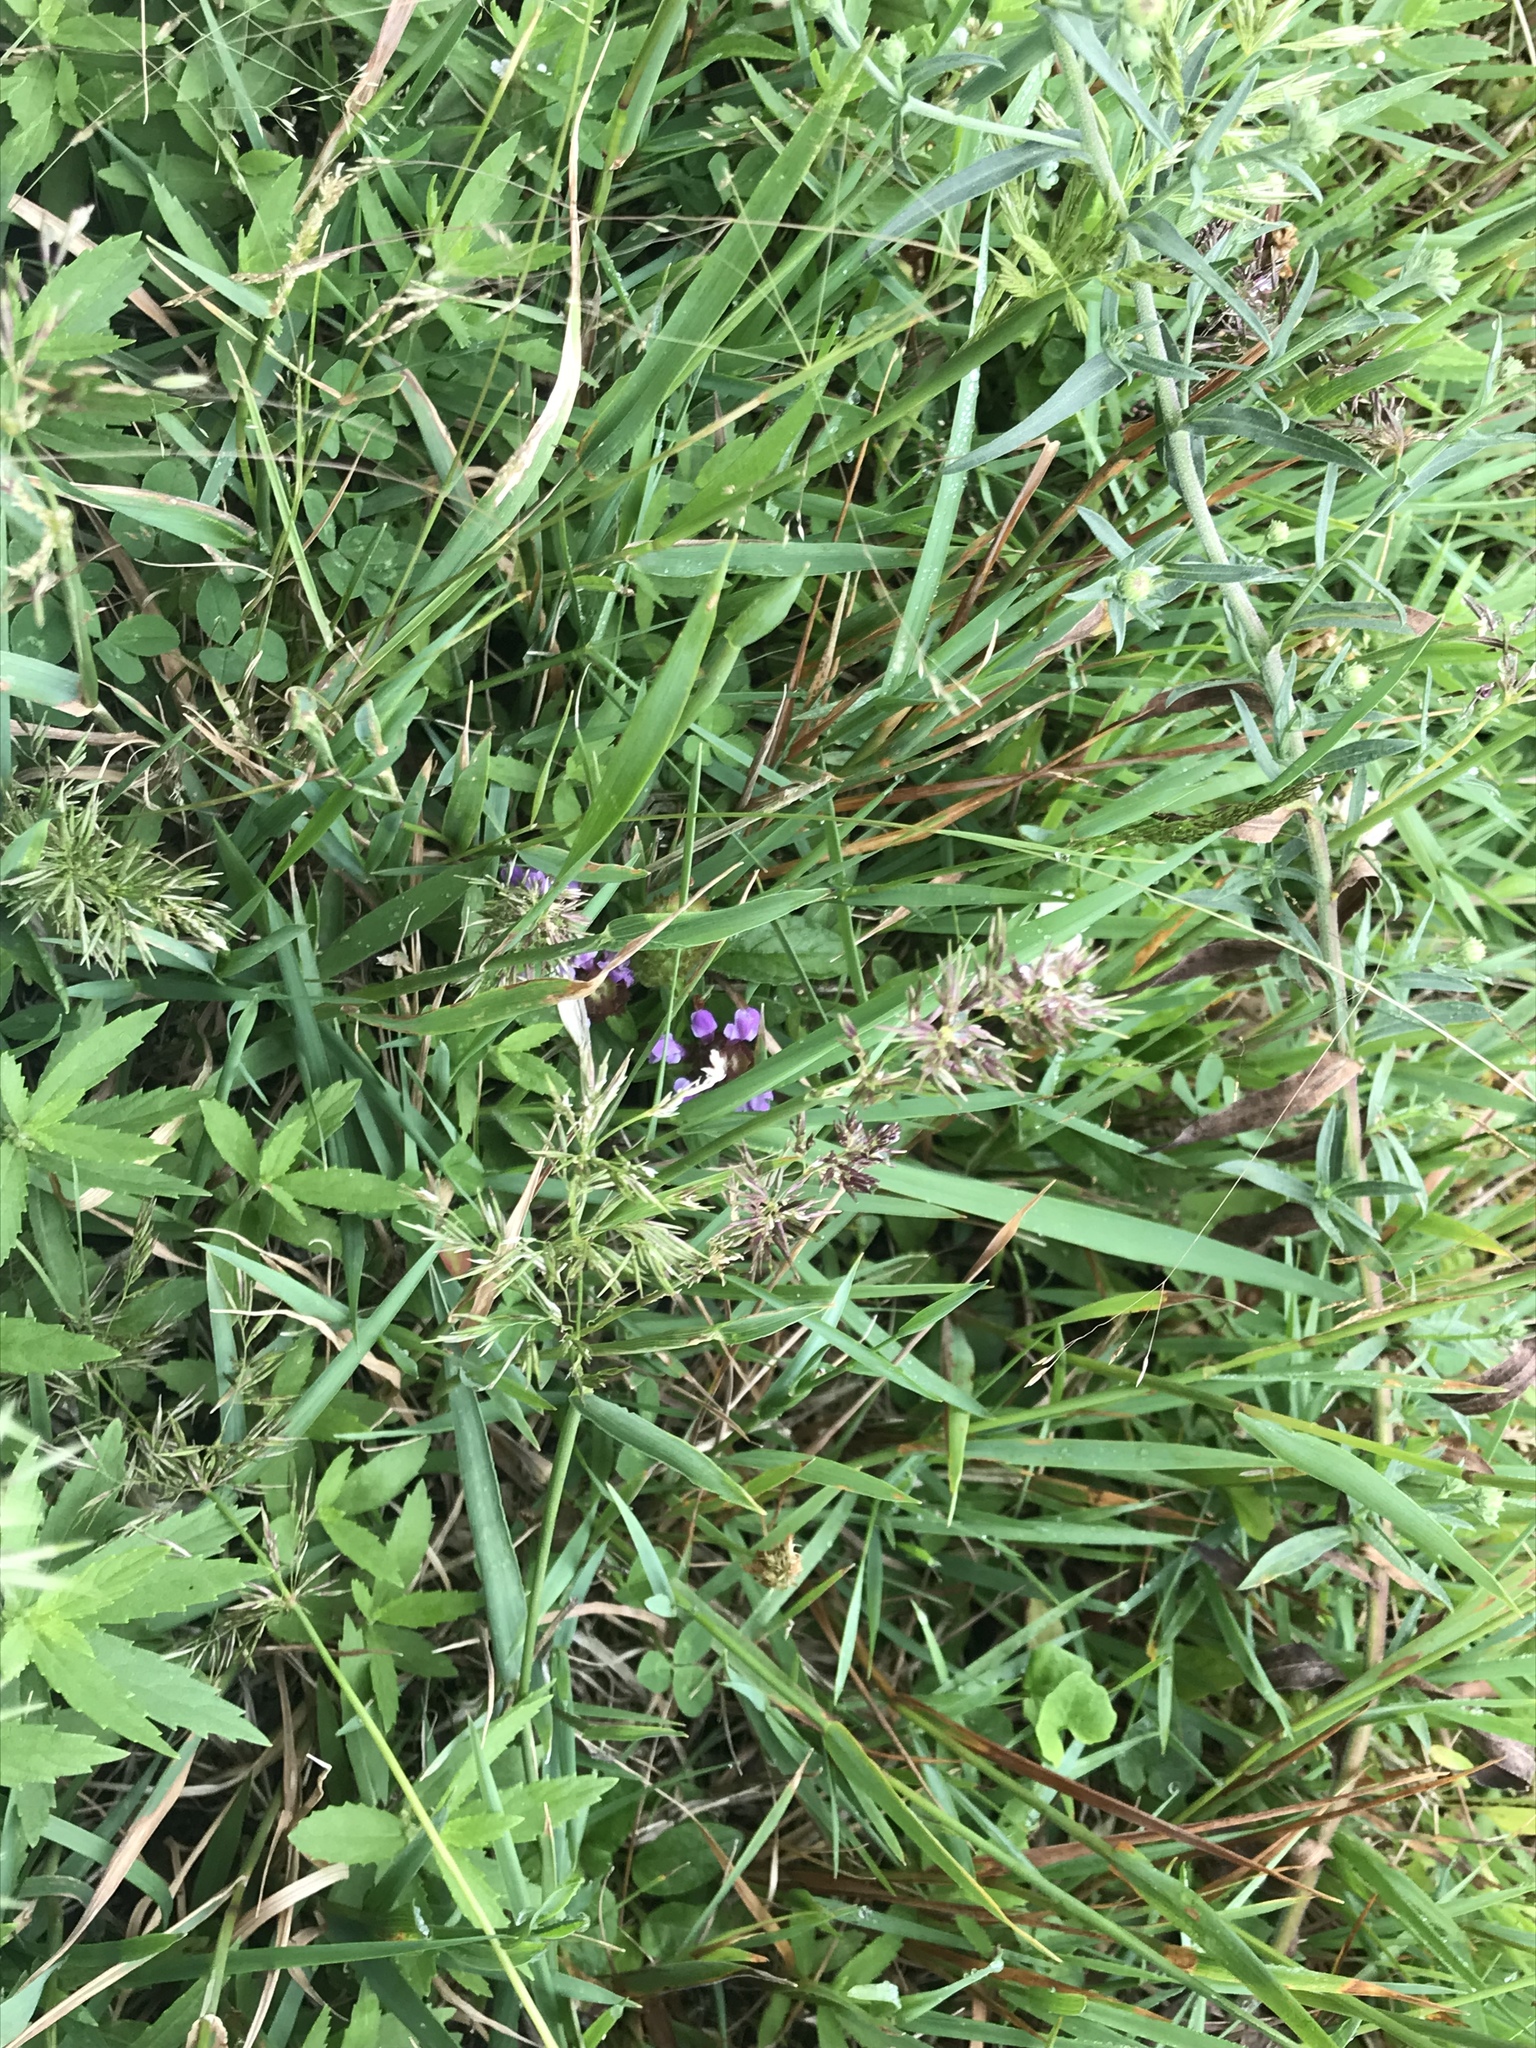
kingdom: Plantae
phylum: Tracheophyta
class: Magnoliopsida
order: Lamiales
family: Lamiaceae
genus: Prunella
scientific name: Prunella vulgaris
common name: Heal-all
